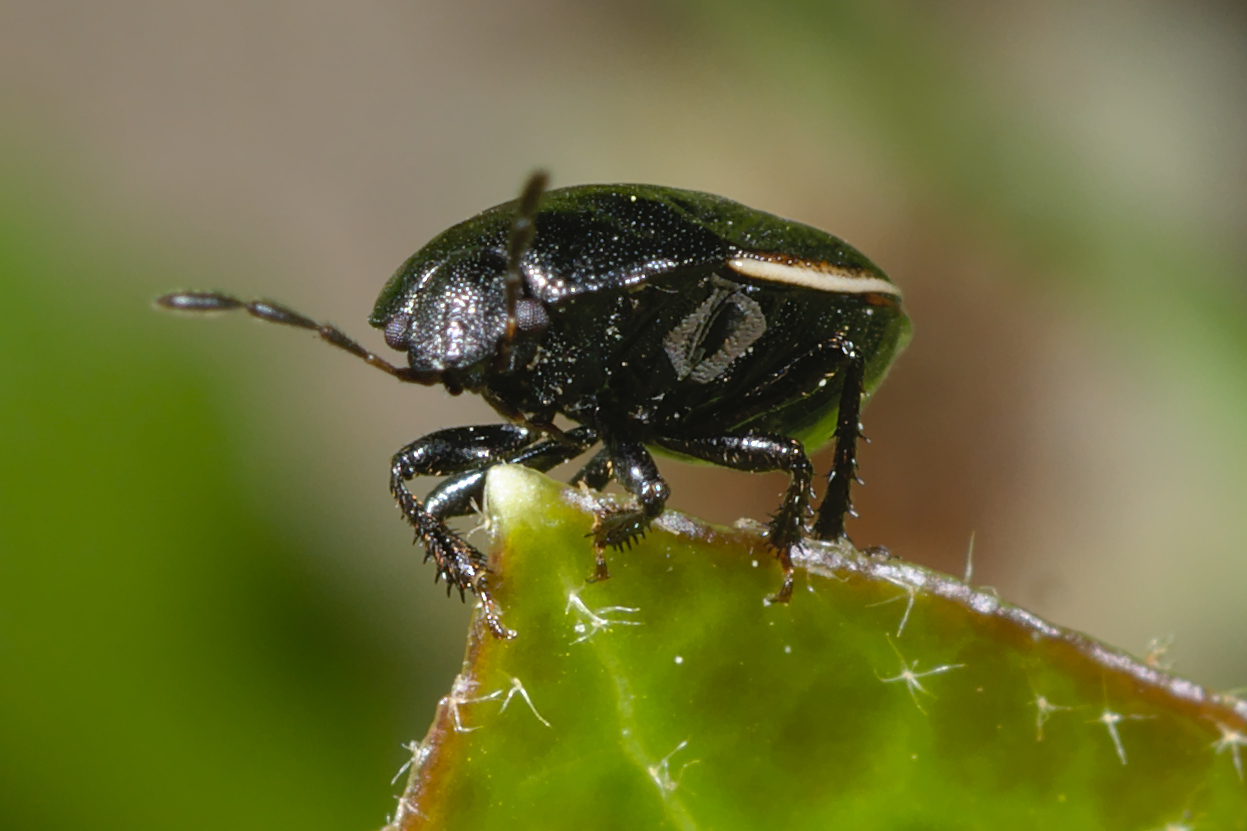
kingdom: Animalia
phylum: Arthropoda
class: Insecta
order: Hemiptera
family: Cydnidae
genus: Legnotus
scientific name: Legnotus limbosus
